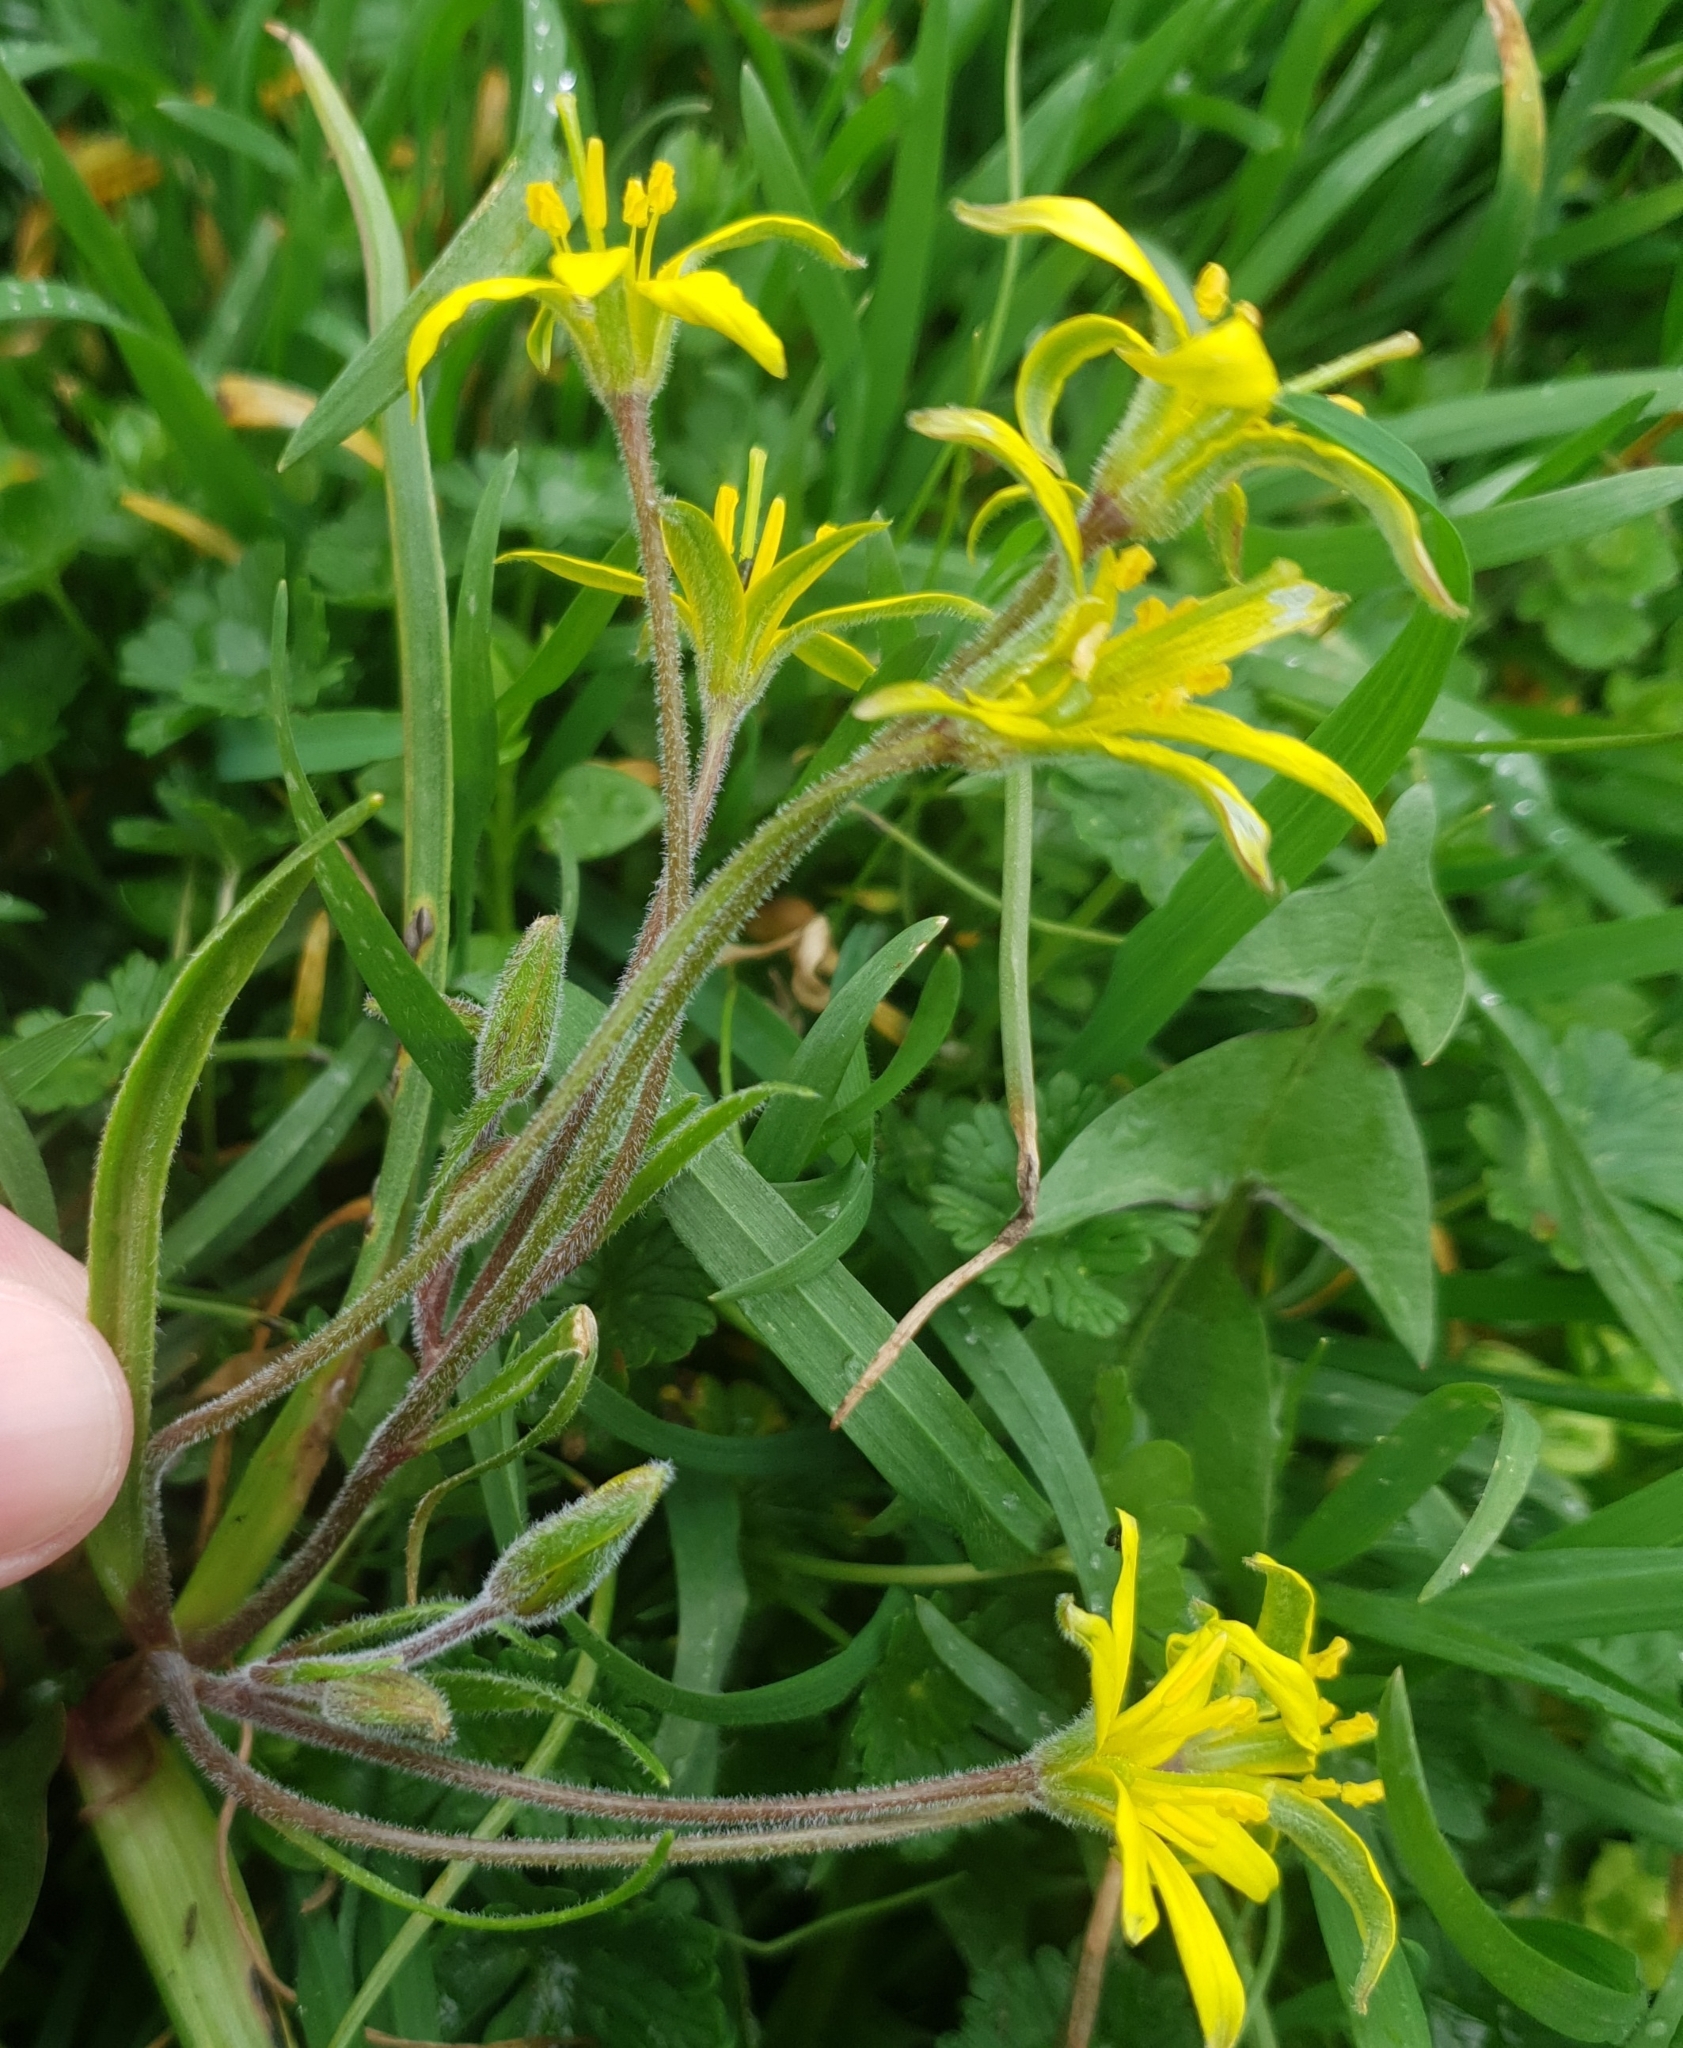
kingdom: Plantae
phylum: Tracheophyta
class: Liliopsida
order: Liliales
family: Liliaceae
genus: Gagea
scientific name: Gagea villosa
